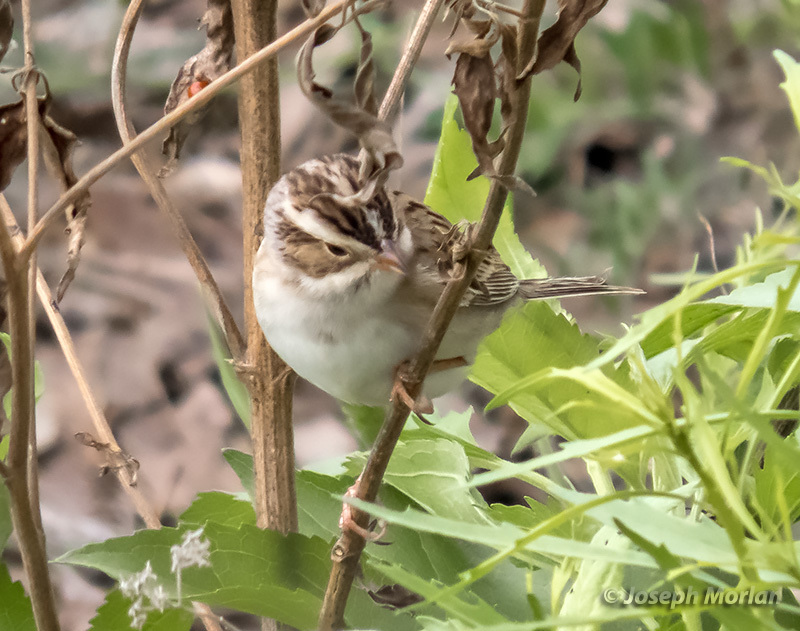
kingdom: Animalia
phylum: Chordata
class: Aves
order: Passeriformes
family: Passerellidae
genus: Spizella
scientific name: Spizella pallida
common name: Clay-colored sparrow
